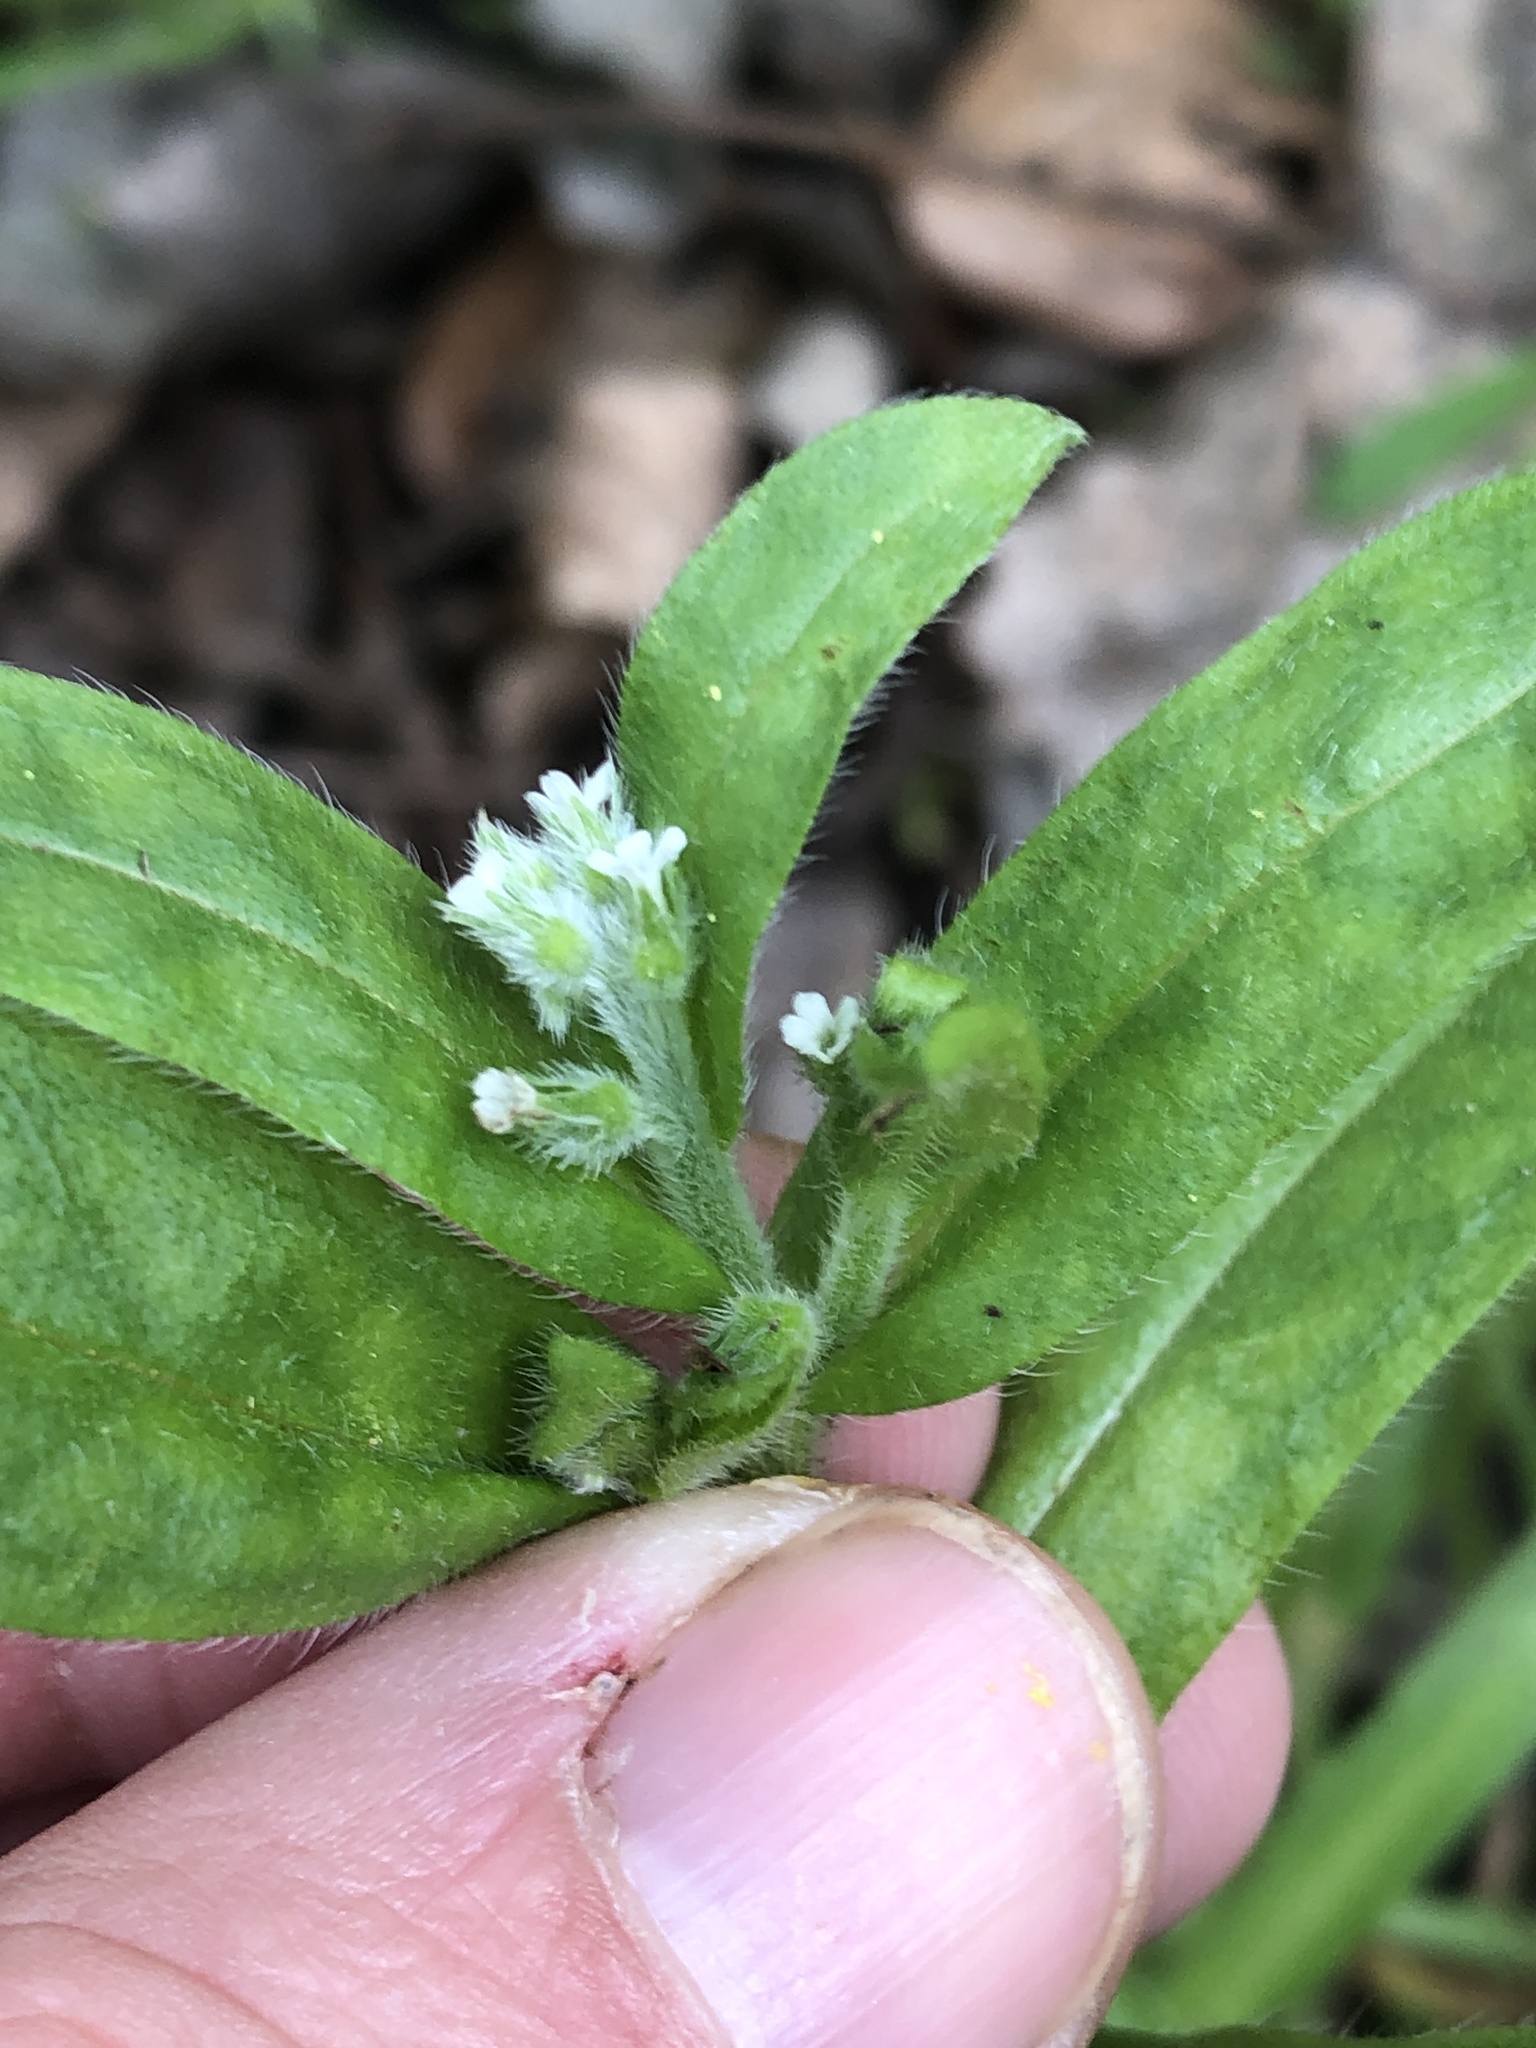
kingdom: Plantae
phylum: Tracheophyta
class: Magnoliopsida
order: Boraginales
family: Boraginaceae
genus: Myosotis
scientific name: Myosotis macrosperma
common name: Large-seed forget-me-not
